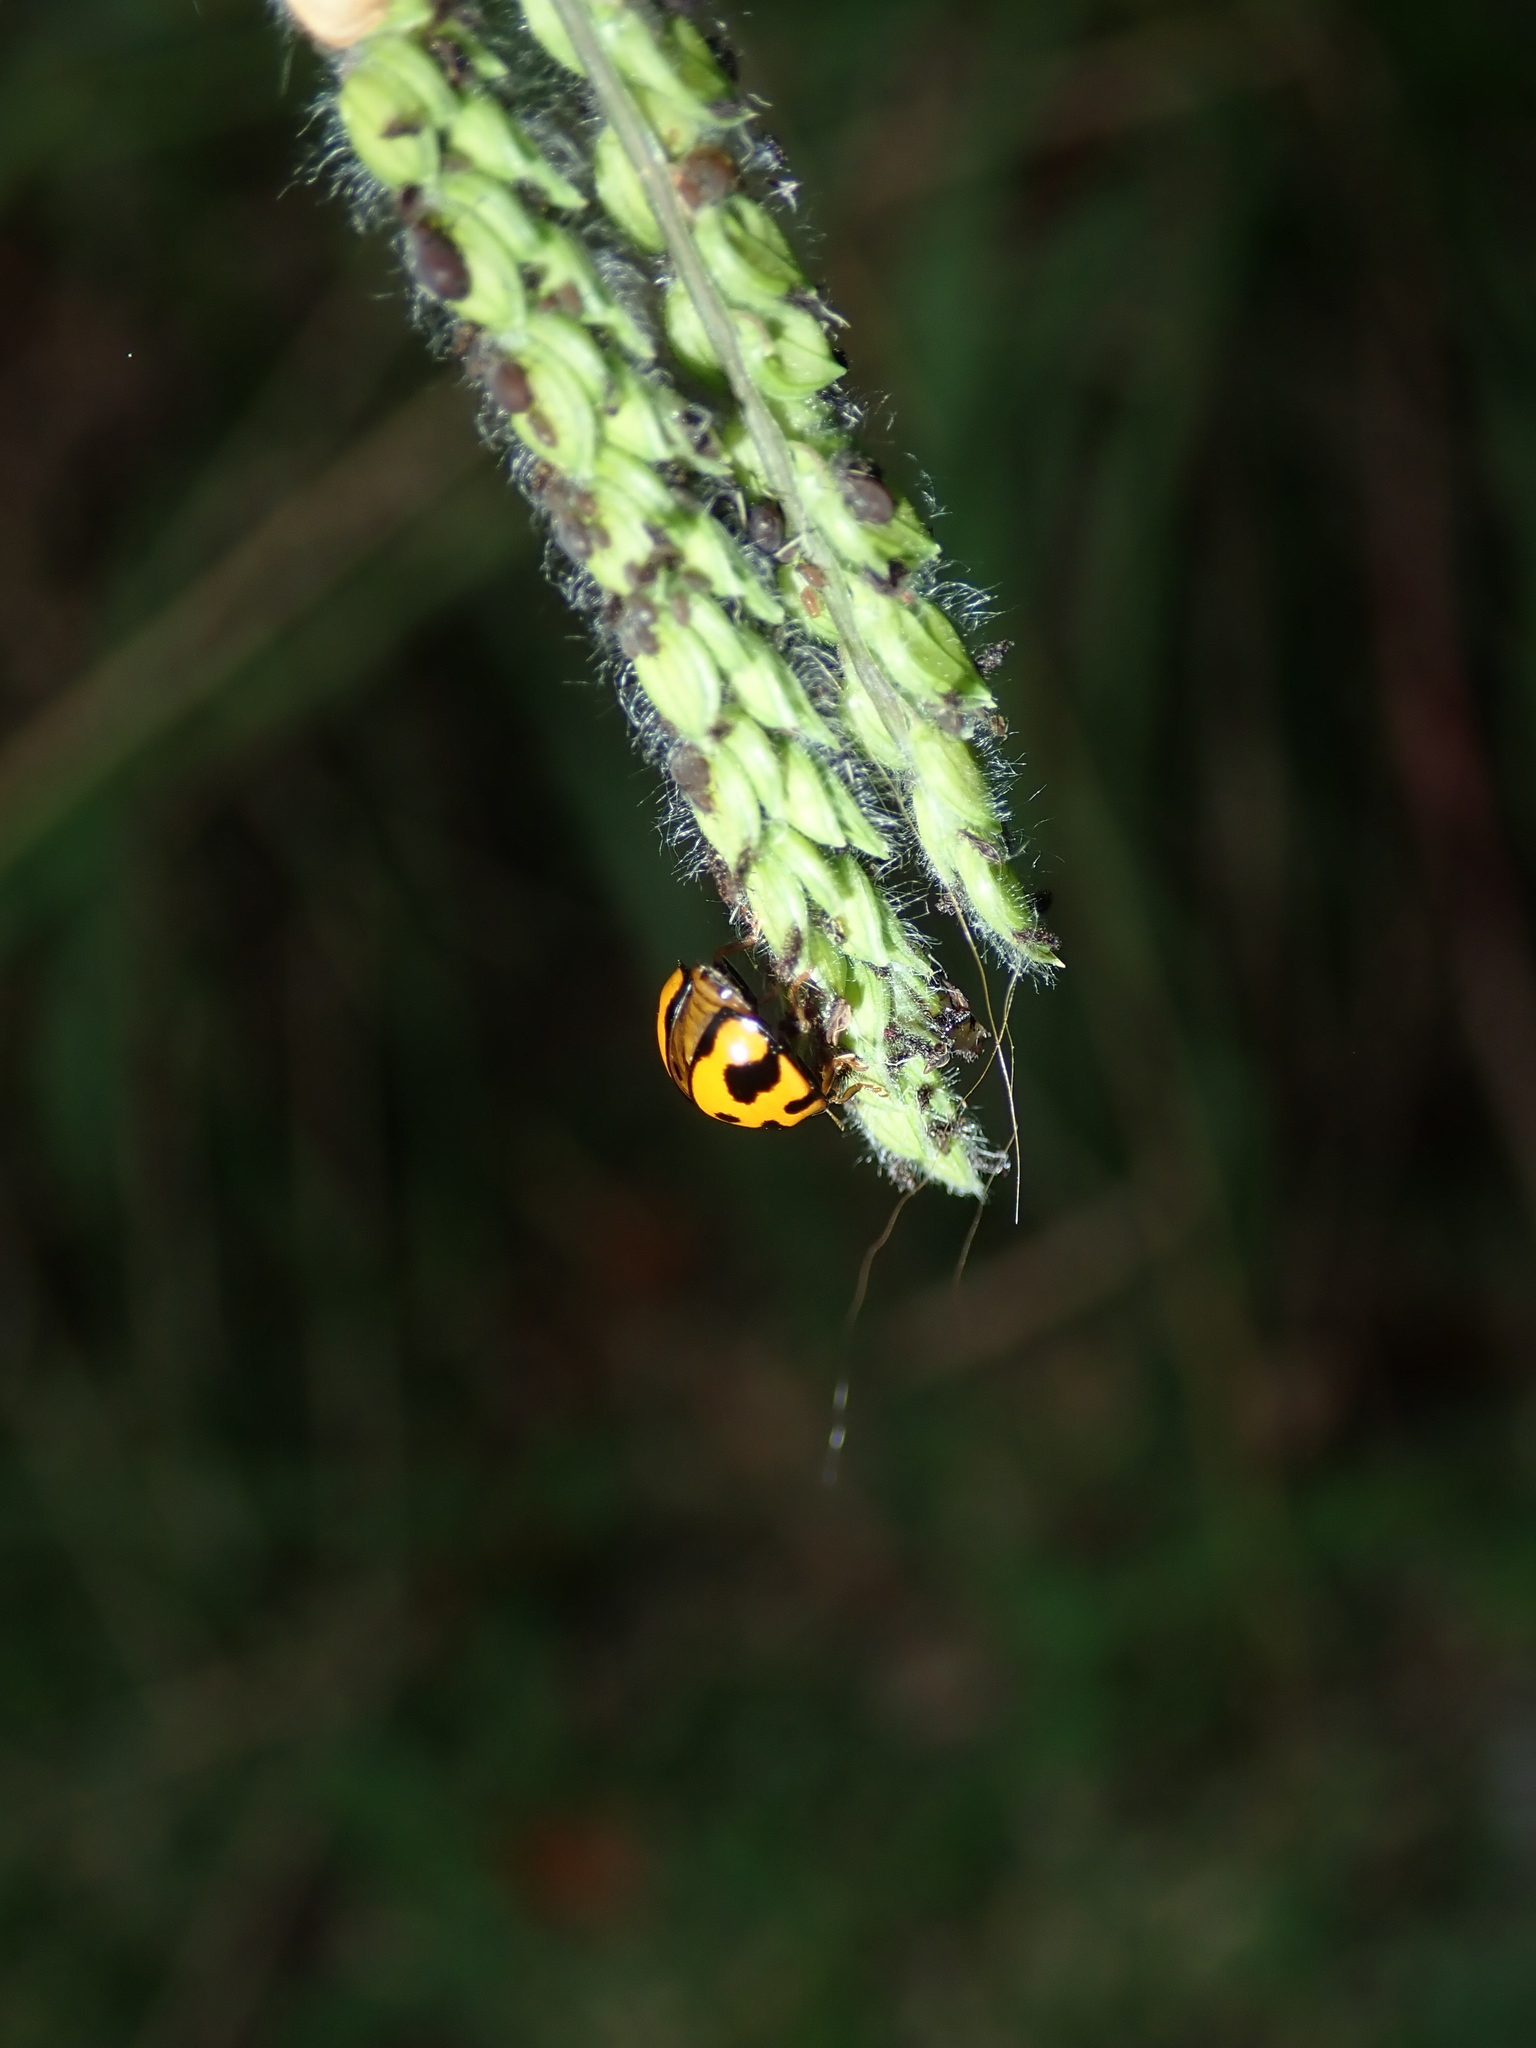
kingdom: Animalia
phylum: Arthropoda
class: Insecta
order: Coleoptera
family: Coccinellidae
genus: Coelophora
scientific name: Coelophora inaequalis
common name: Common australian lady beetle
